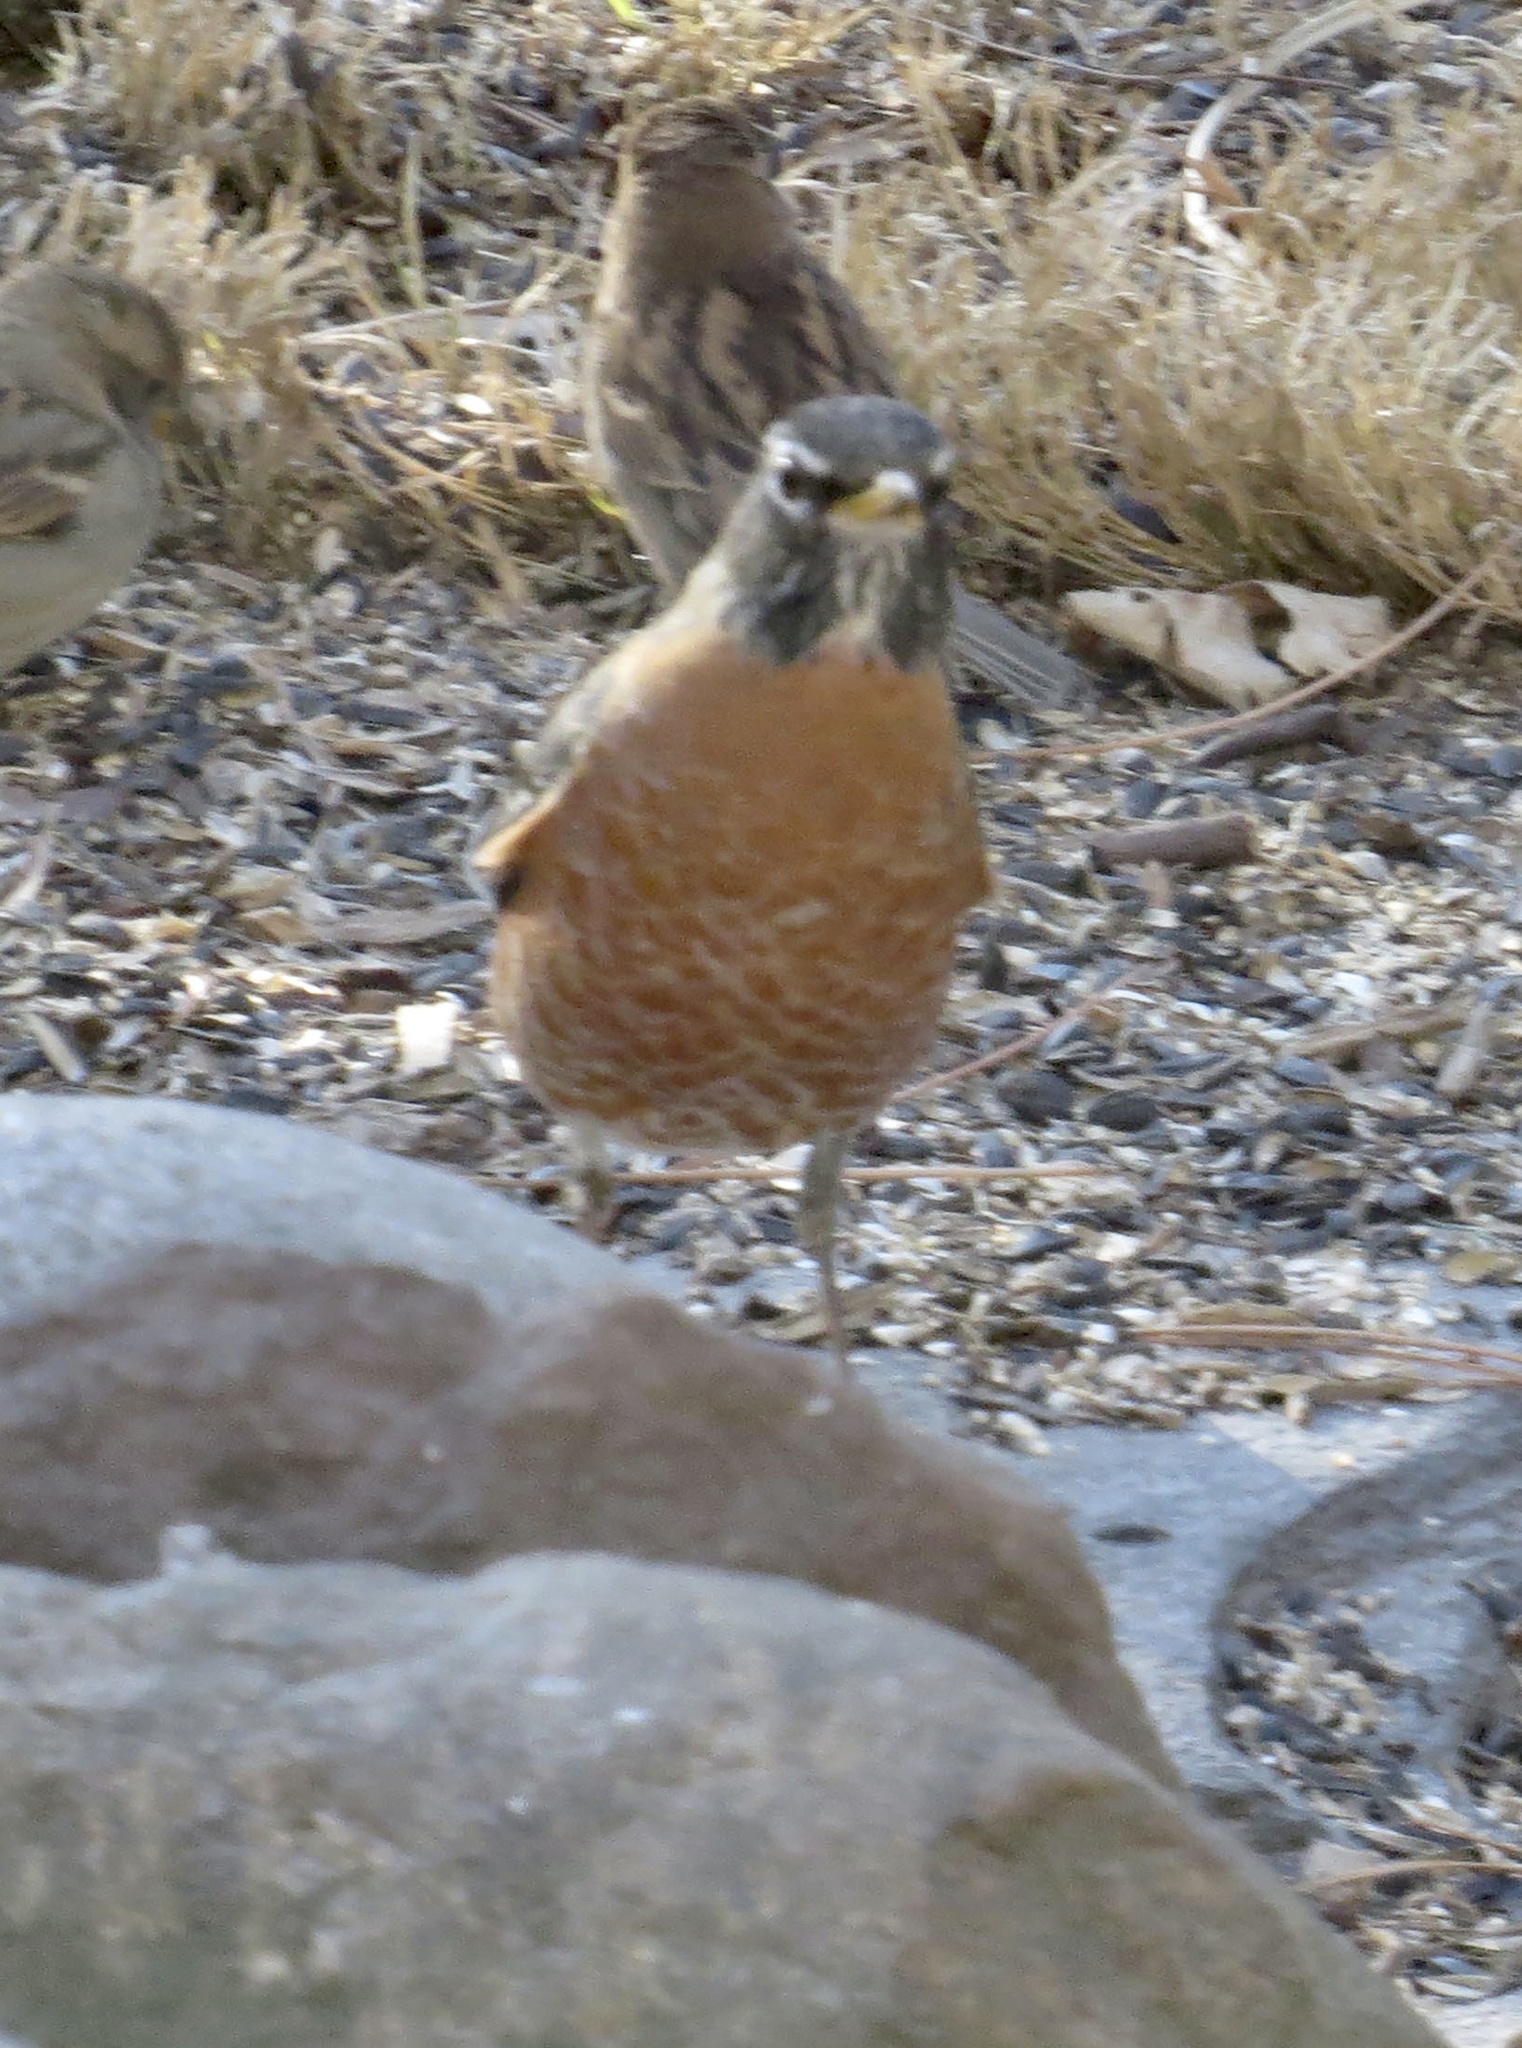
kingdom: Animalia
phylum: Chordata
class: Aves
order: Passeriformes
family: Turdidae
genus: Turdus
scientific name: Turdus migratorius
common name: American robin
